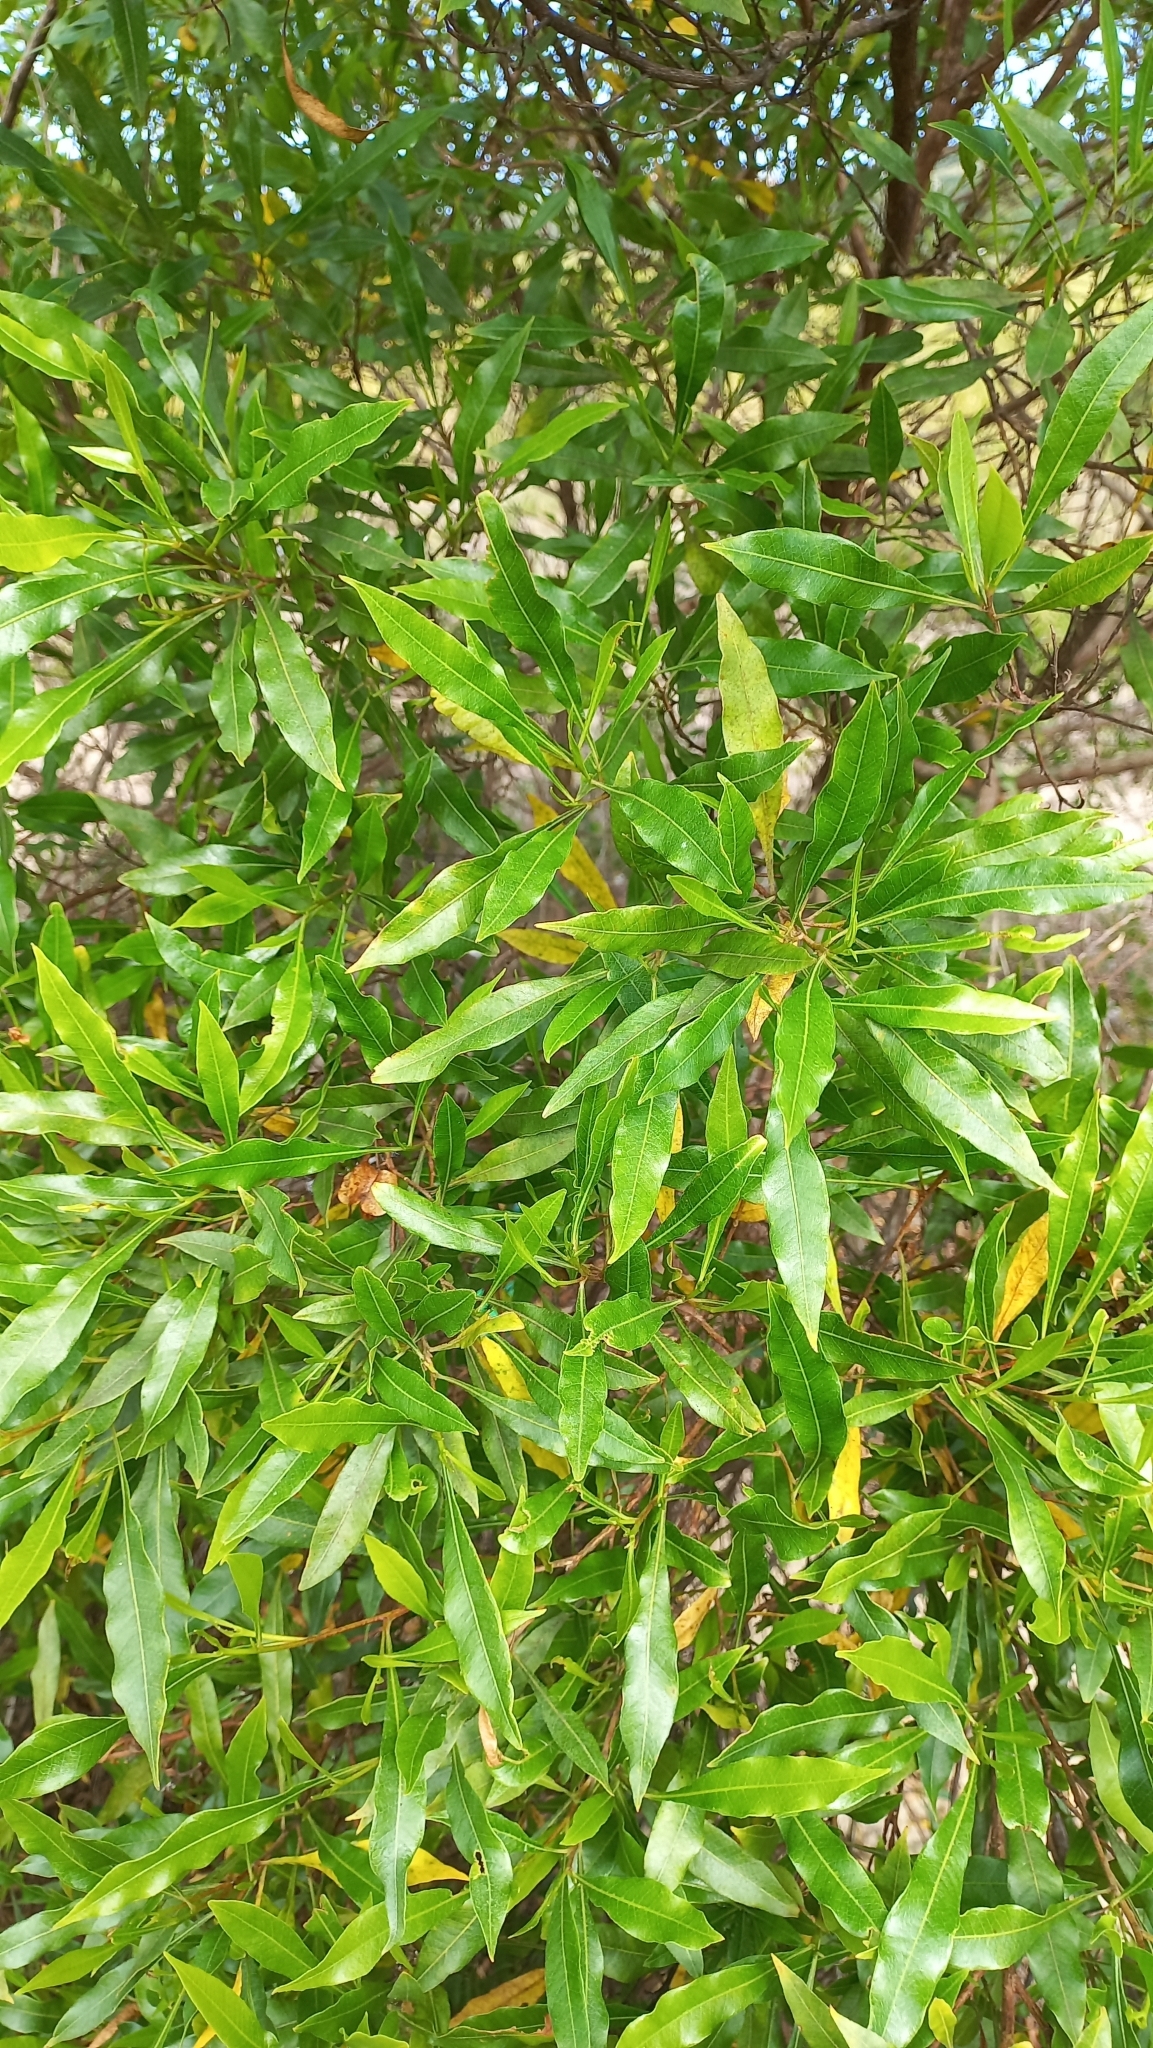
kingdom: Plantae
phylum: Tracheophyta
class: Magnoliopsida
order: Sapindales
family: Sapindaceae
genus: Dodonaea
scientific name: Dodonaea viscosa
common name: Hopbush
